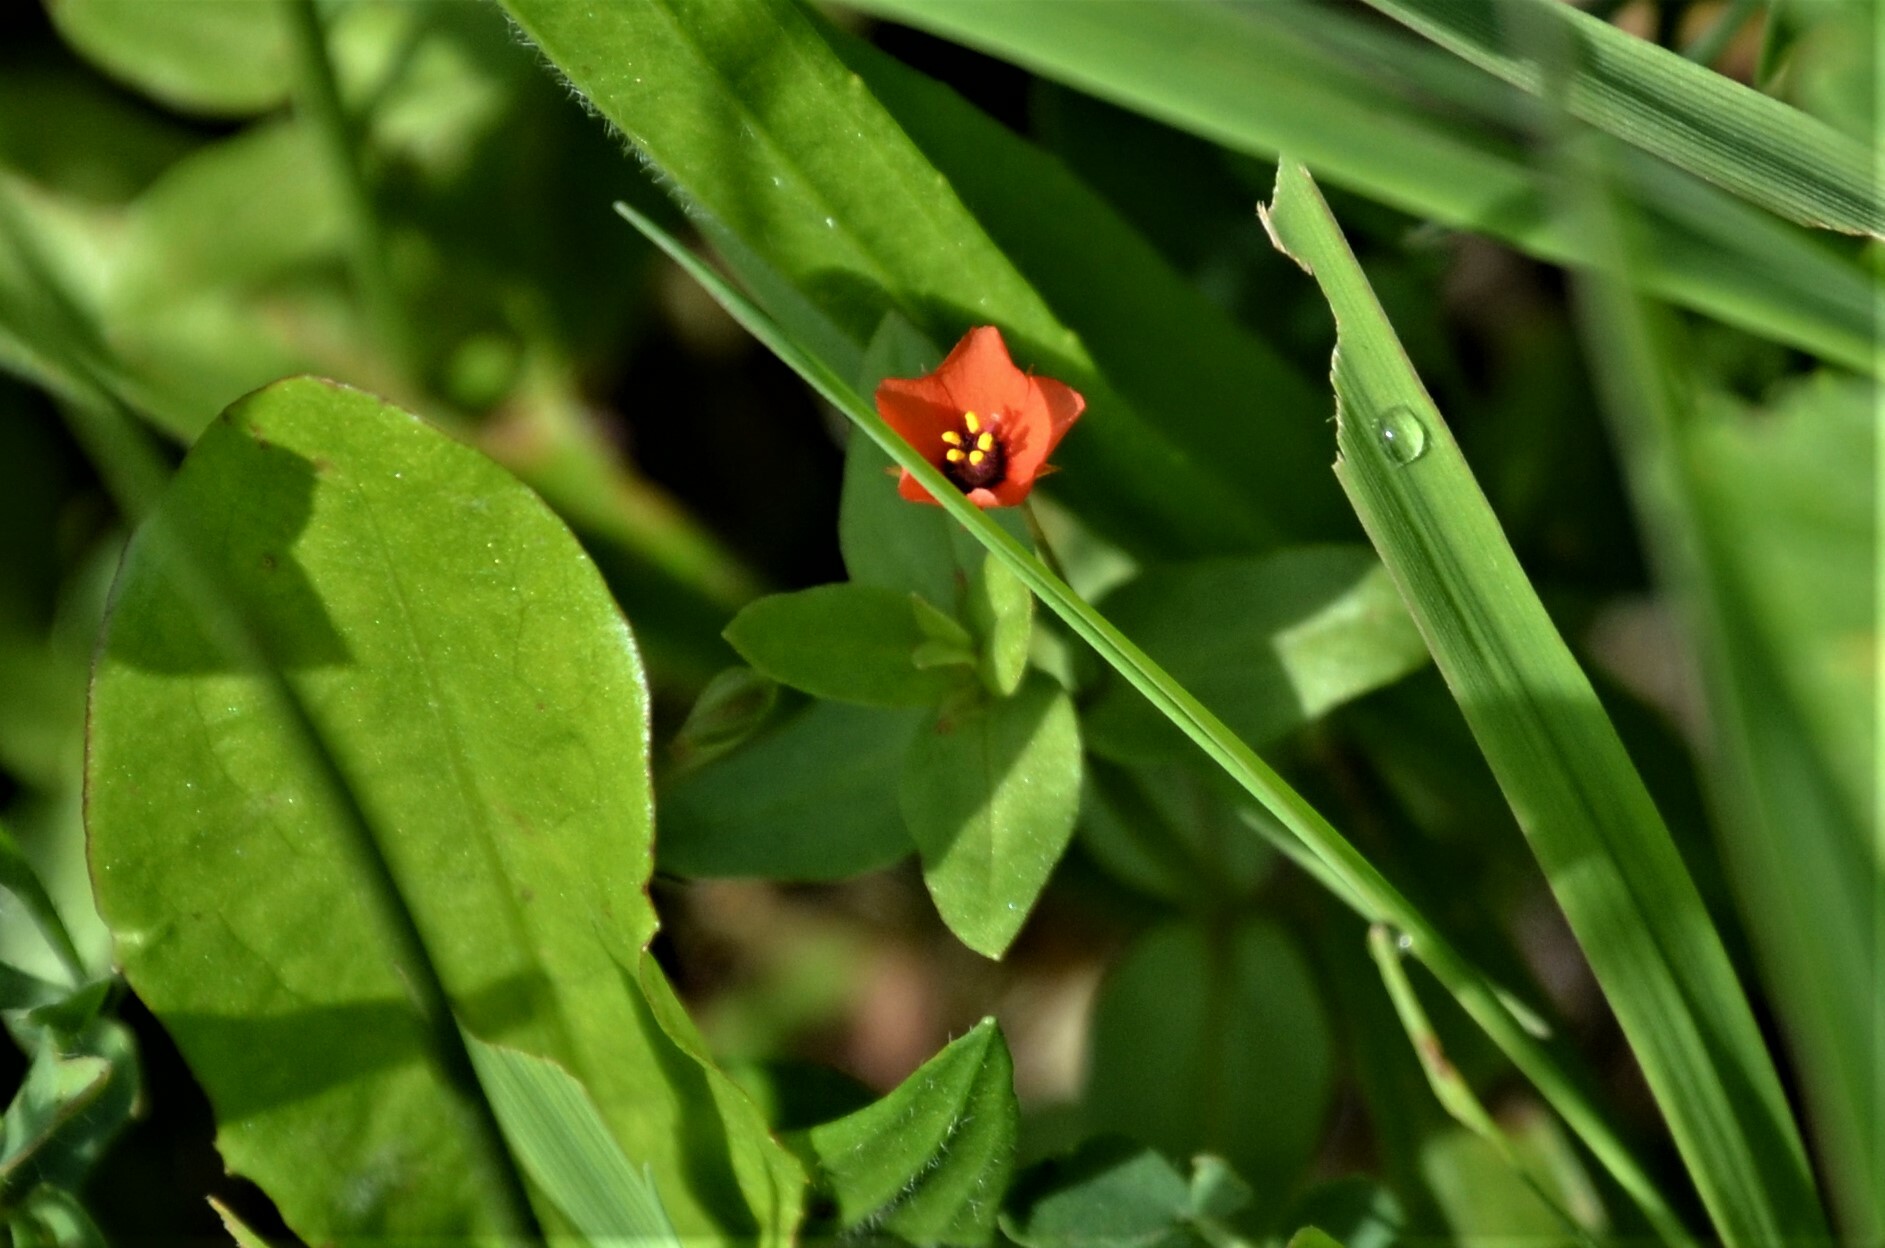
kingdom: Plantae
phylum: Tracheophyta
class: Magnoliopsida
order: Ericales
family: Primulaceae
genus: Lysimachia
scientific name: Lysimachia arvensis
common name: Scarlet pimpernel
